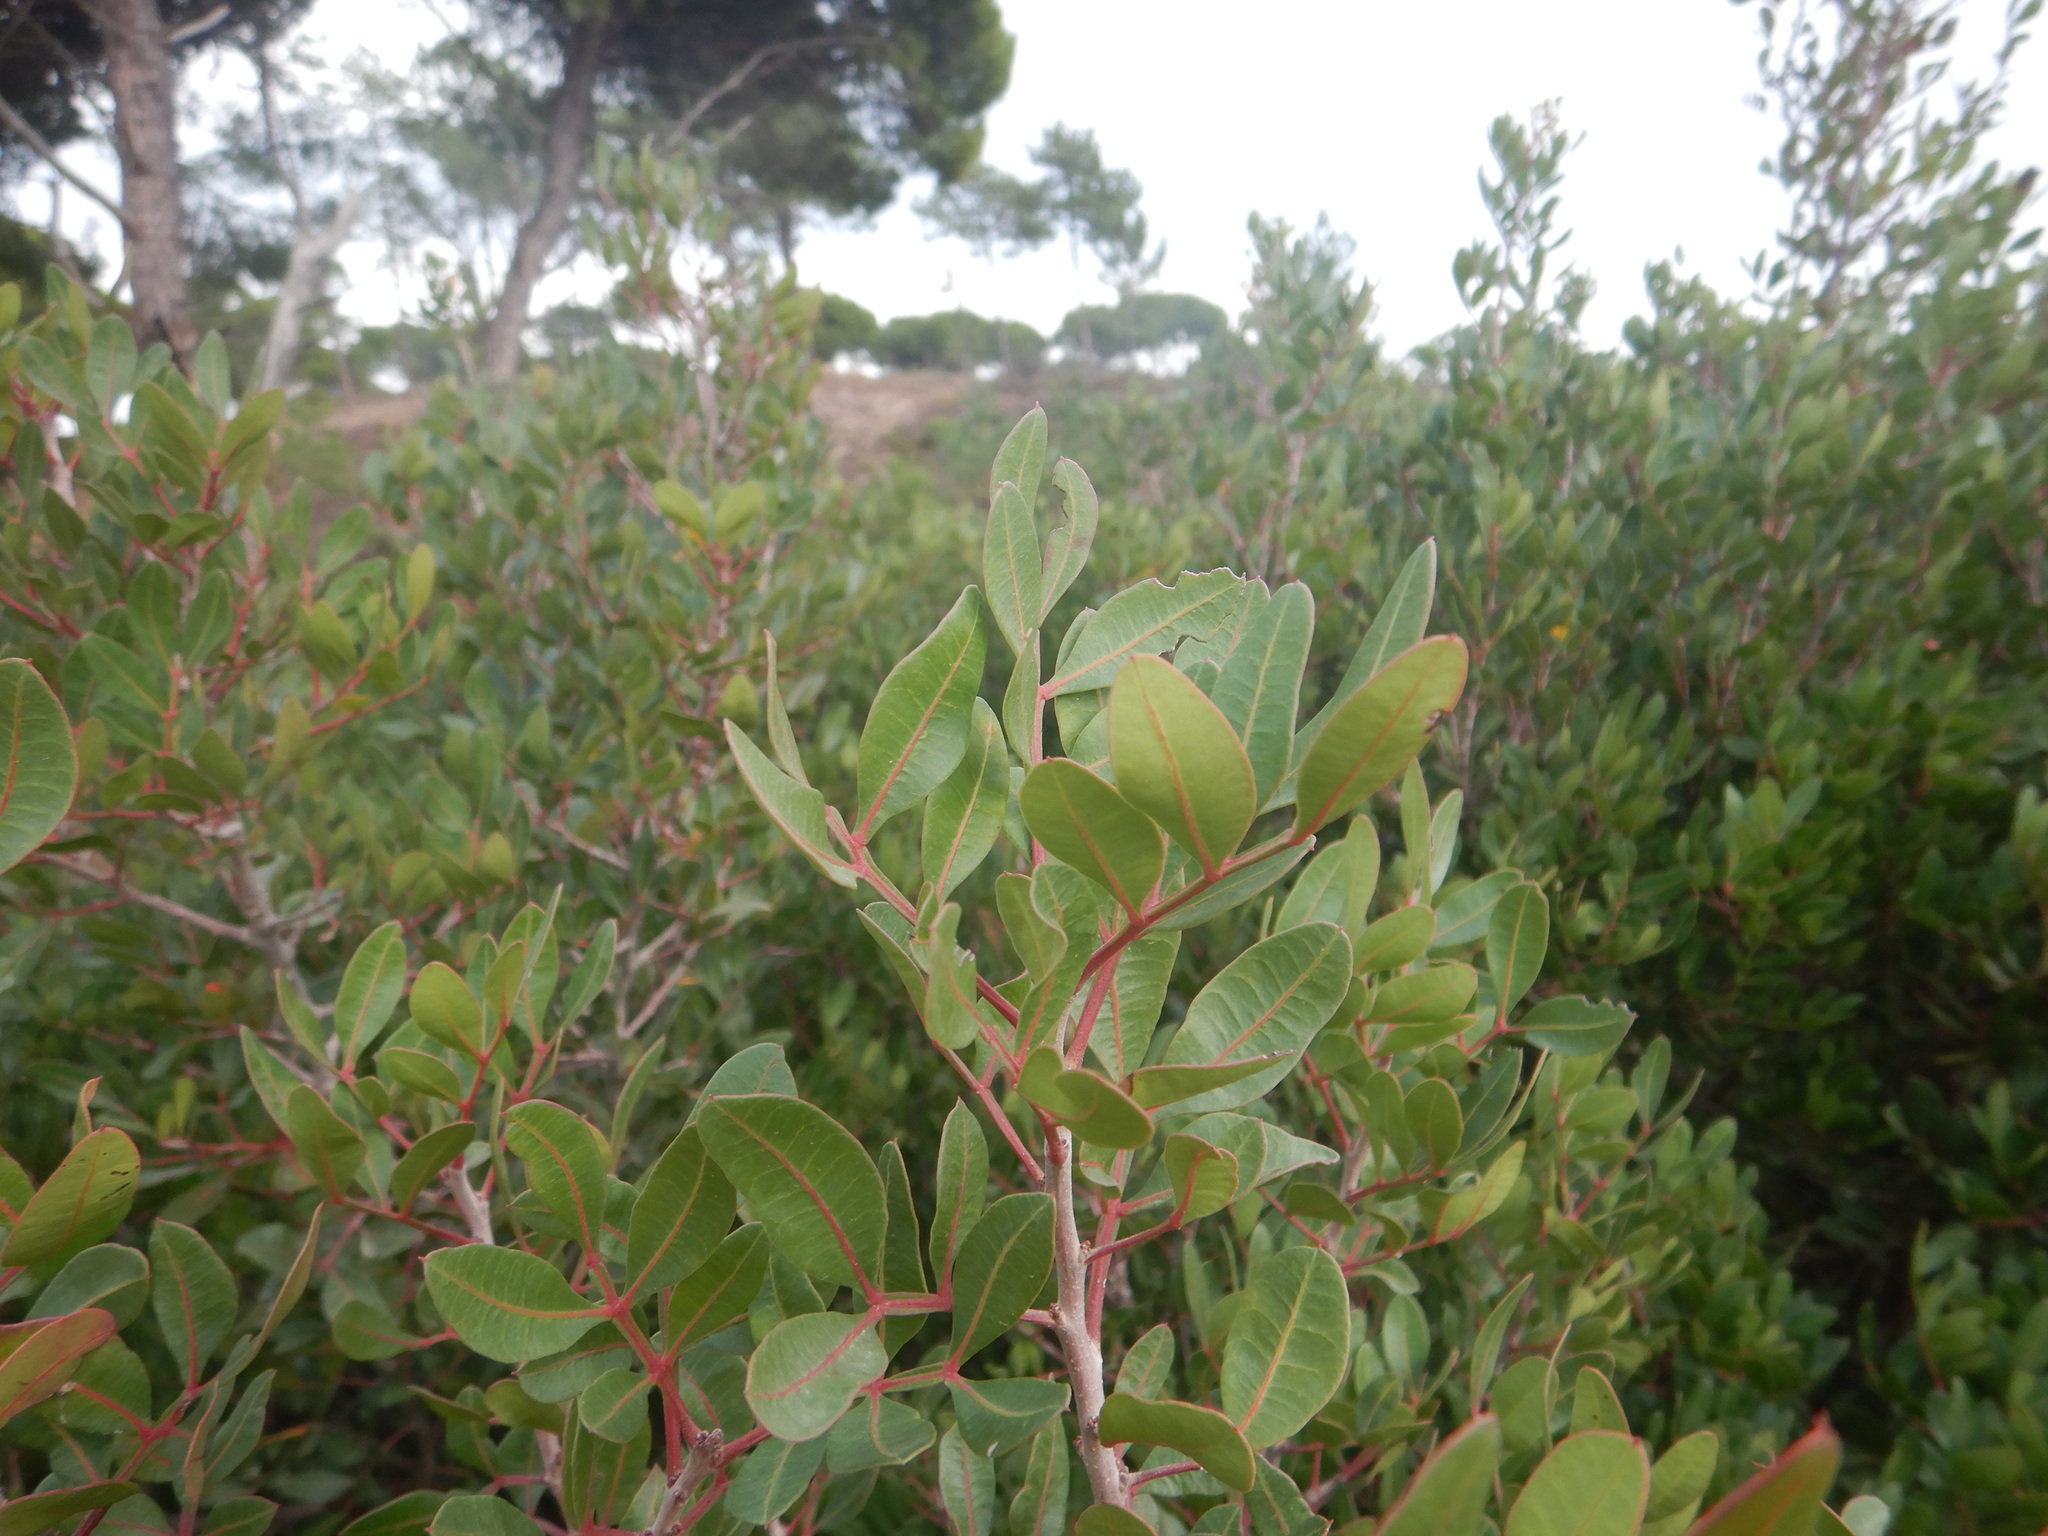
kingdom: Plantae
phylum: Tracheophyta
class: Magnoliopsida
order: Sapindales
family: Anacardiaceae
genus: Pistacia
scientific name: Pistacia lentiscus
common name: Lentisk
